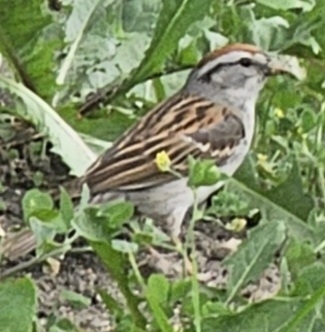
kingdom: Animalia
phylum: Chordata
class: Aves
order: Passeriformes
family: Passerellidae
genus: Spizella
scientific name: Spizella passerina
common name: Chipping sparrow
